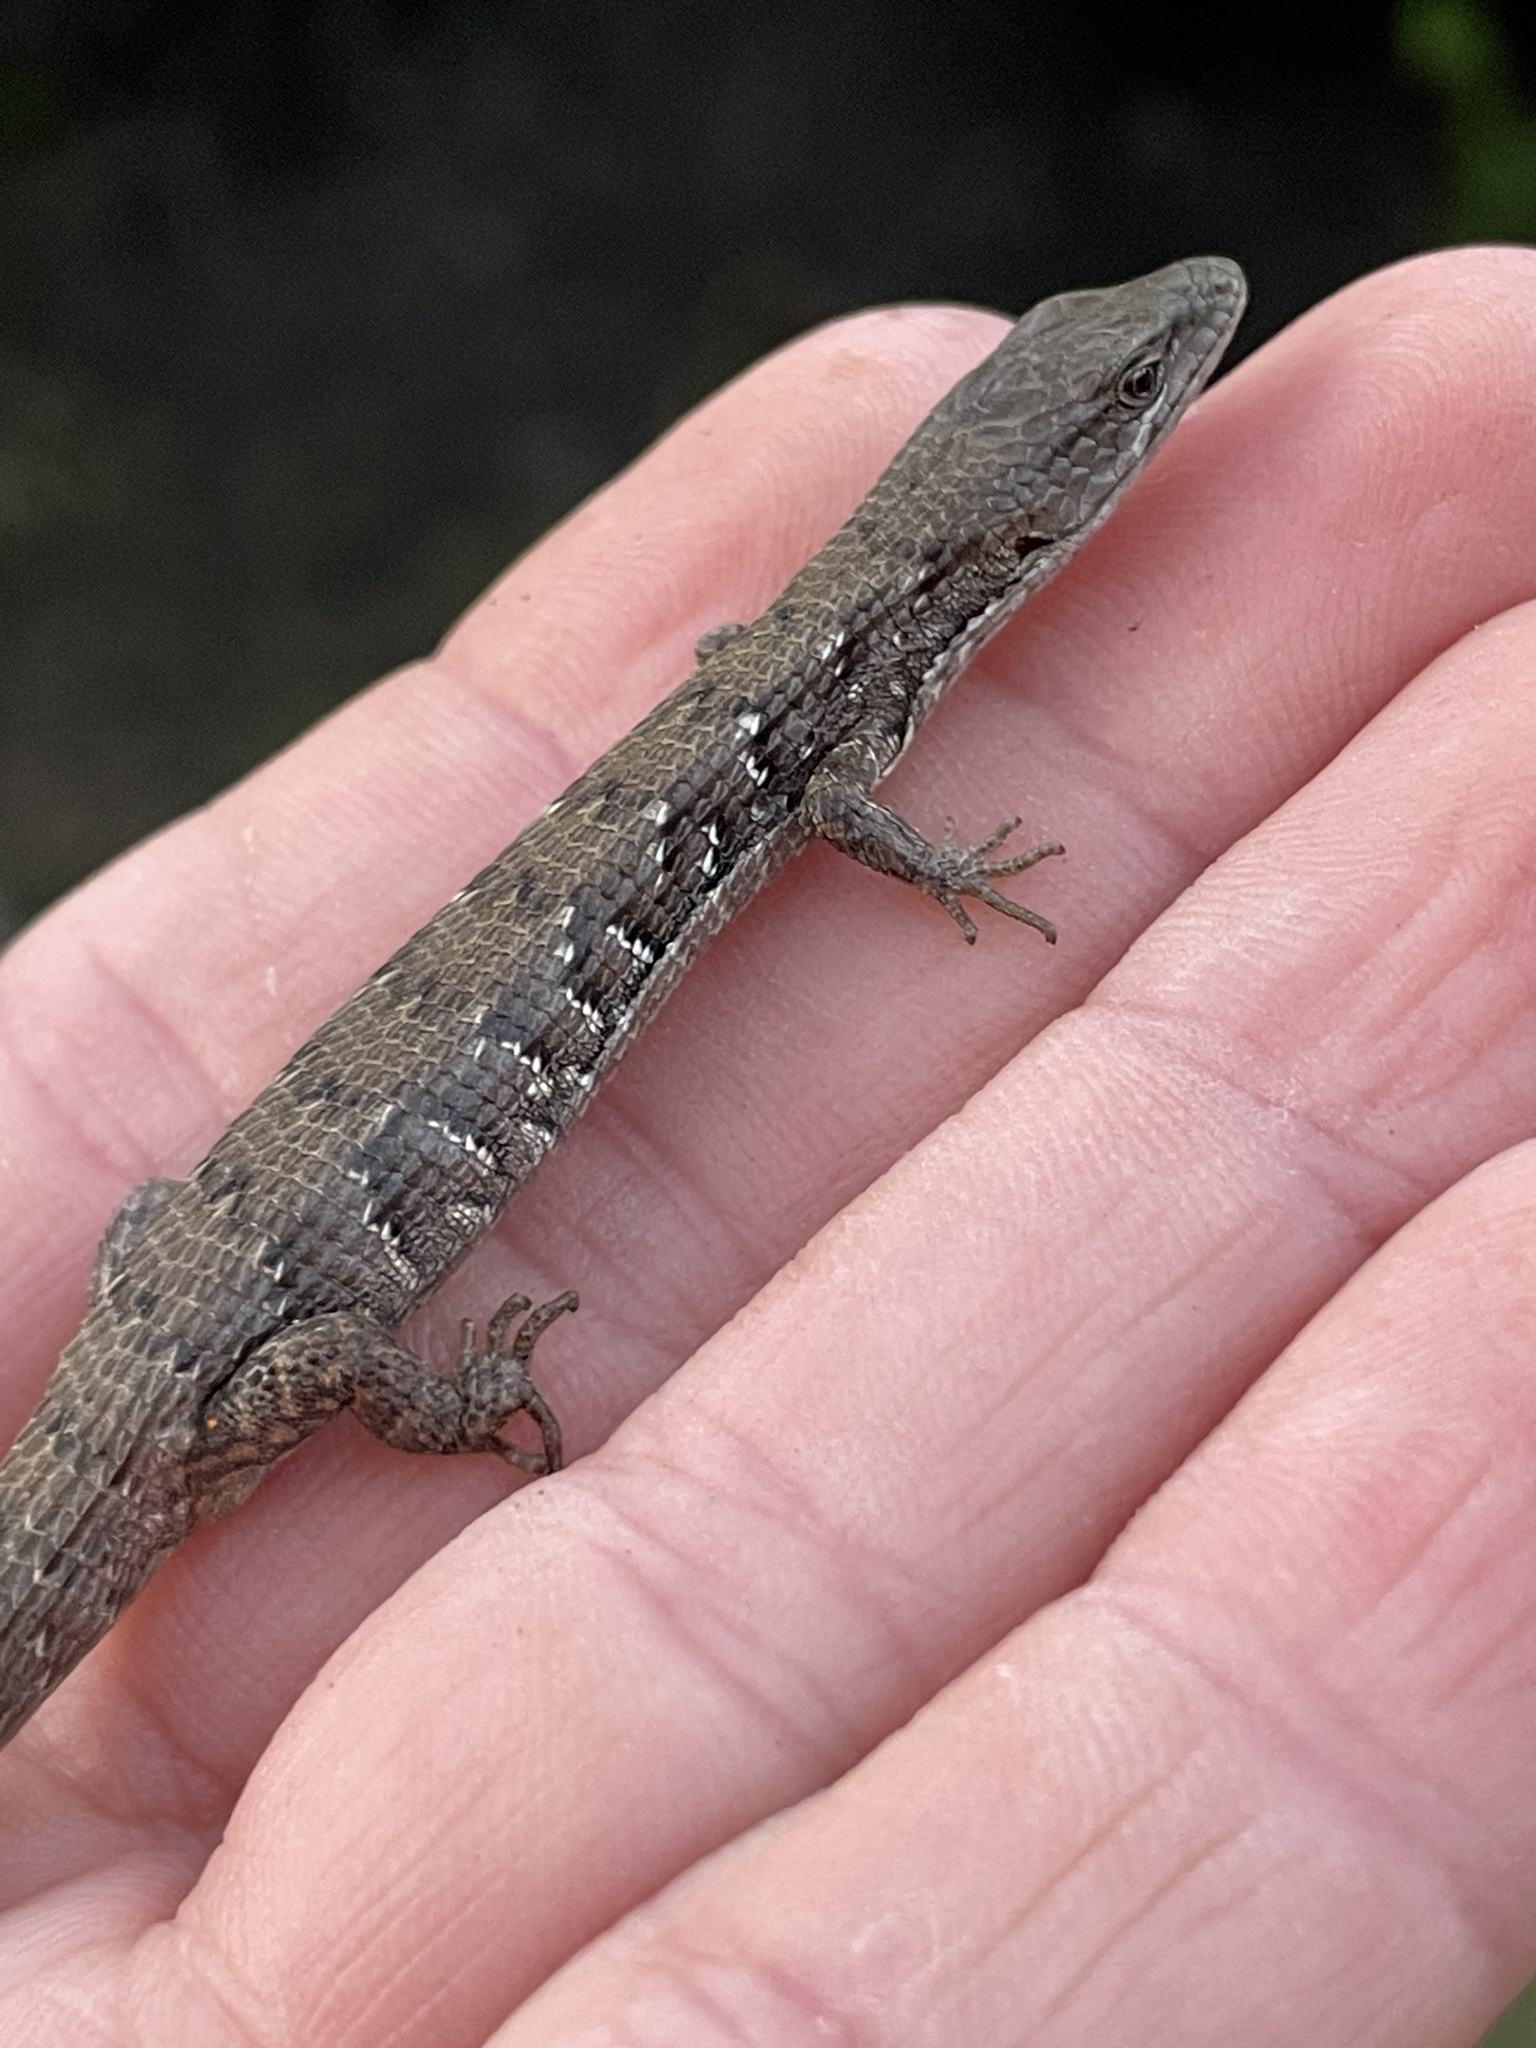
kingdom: Animalia
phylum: Chordata
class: Squamata
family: Anguidae
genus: Elgaria
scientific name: Elgaria multicarinata
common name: Southern alligator lizard
